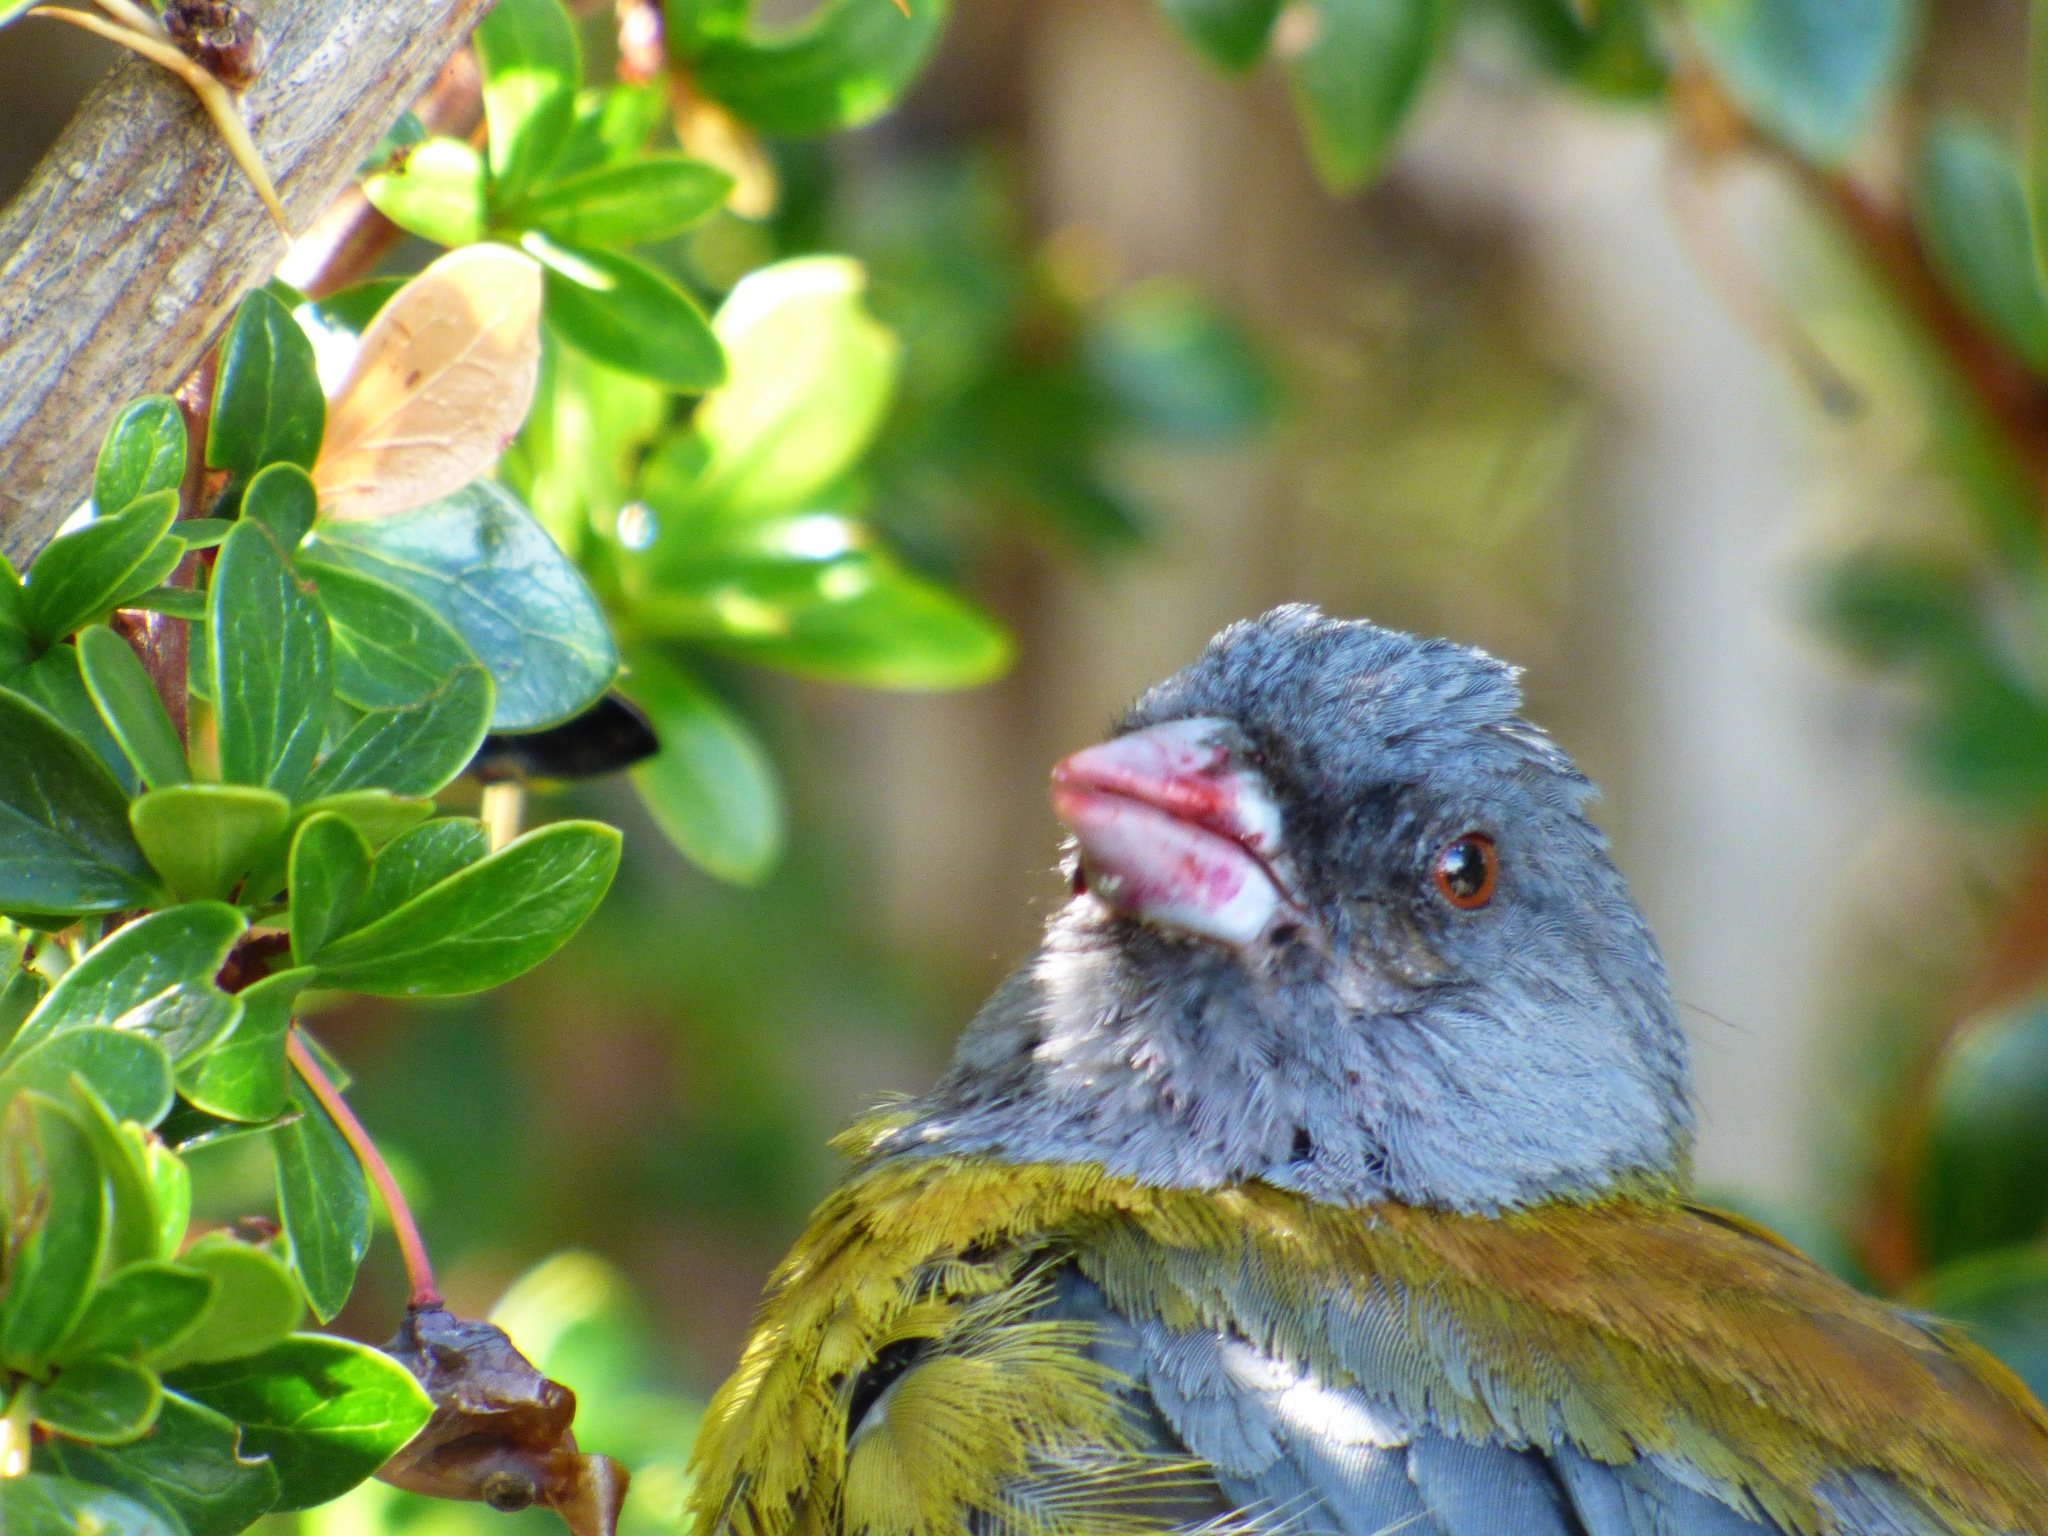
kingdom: Animalia
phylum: Chordata
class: Aves
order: Passeriformes
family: Thraupidae
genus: Phrygilus
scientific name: Phrygilus patagonicus
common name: Patagonian sierra finch
